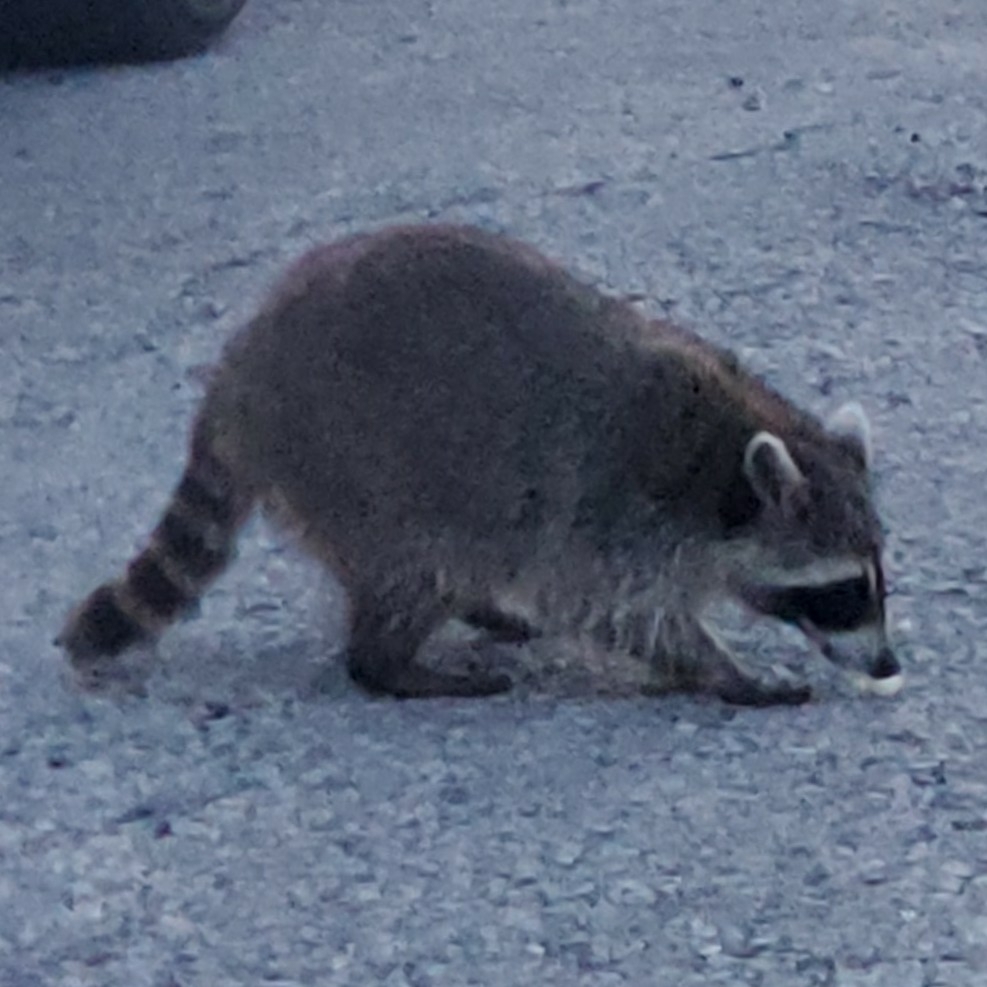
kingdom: Animalia
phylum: Chordata
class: Mammalia
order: Carnivora
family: Procyonidae
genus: Procyon
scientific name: Procyon lotor
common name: Raccoon
